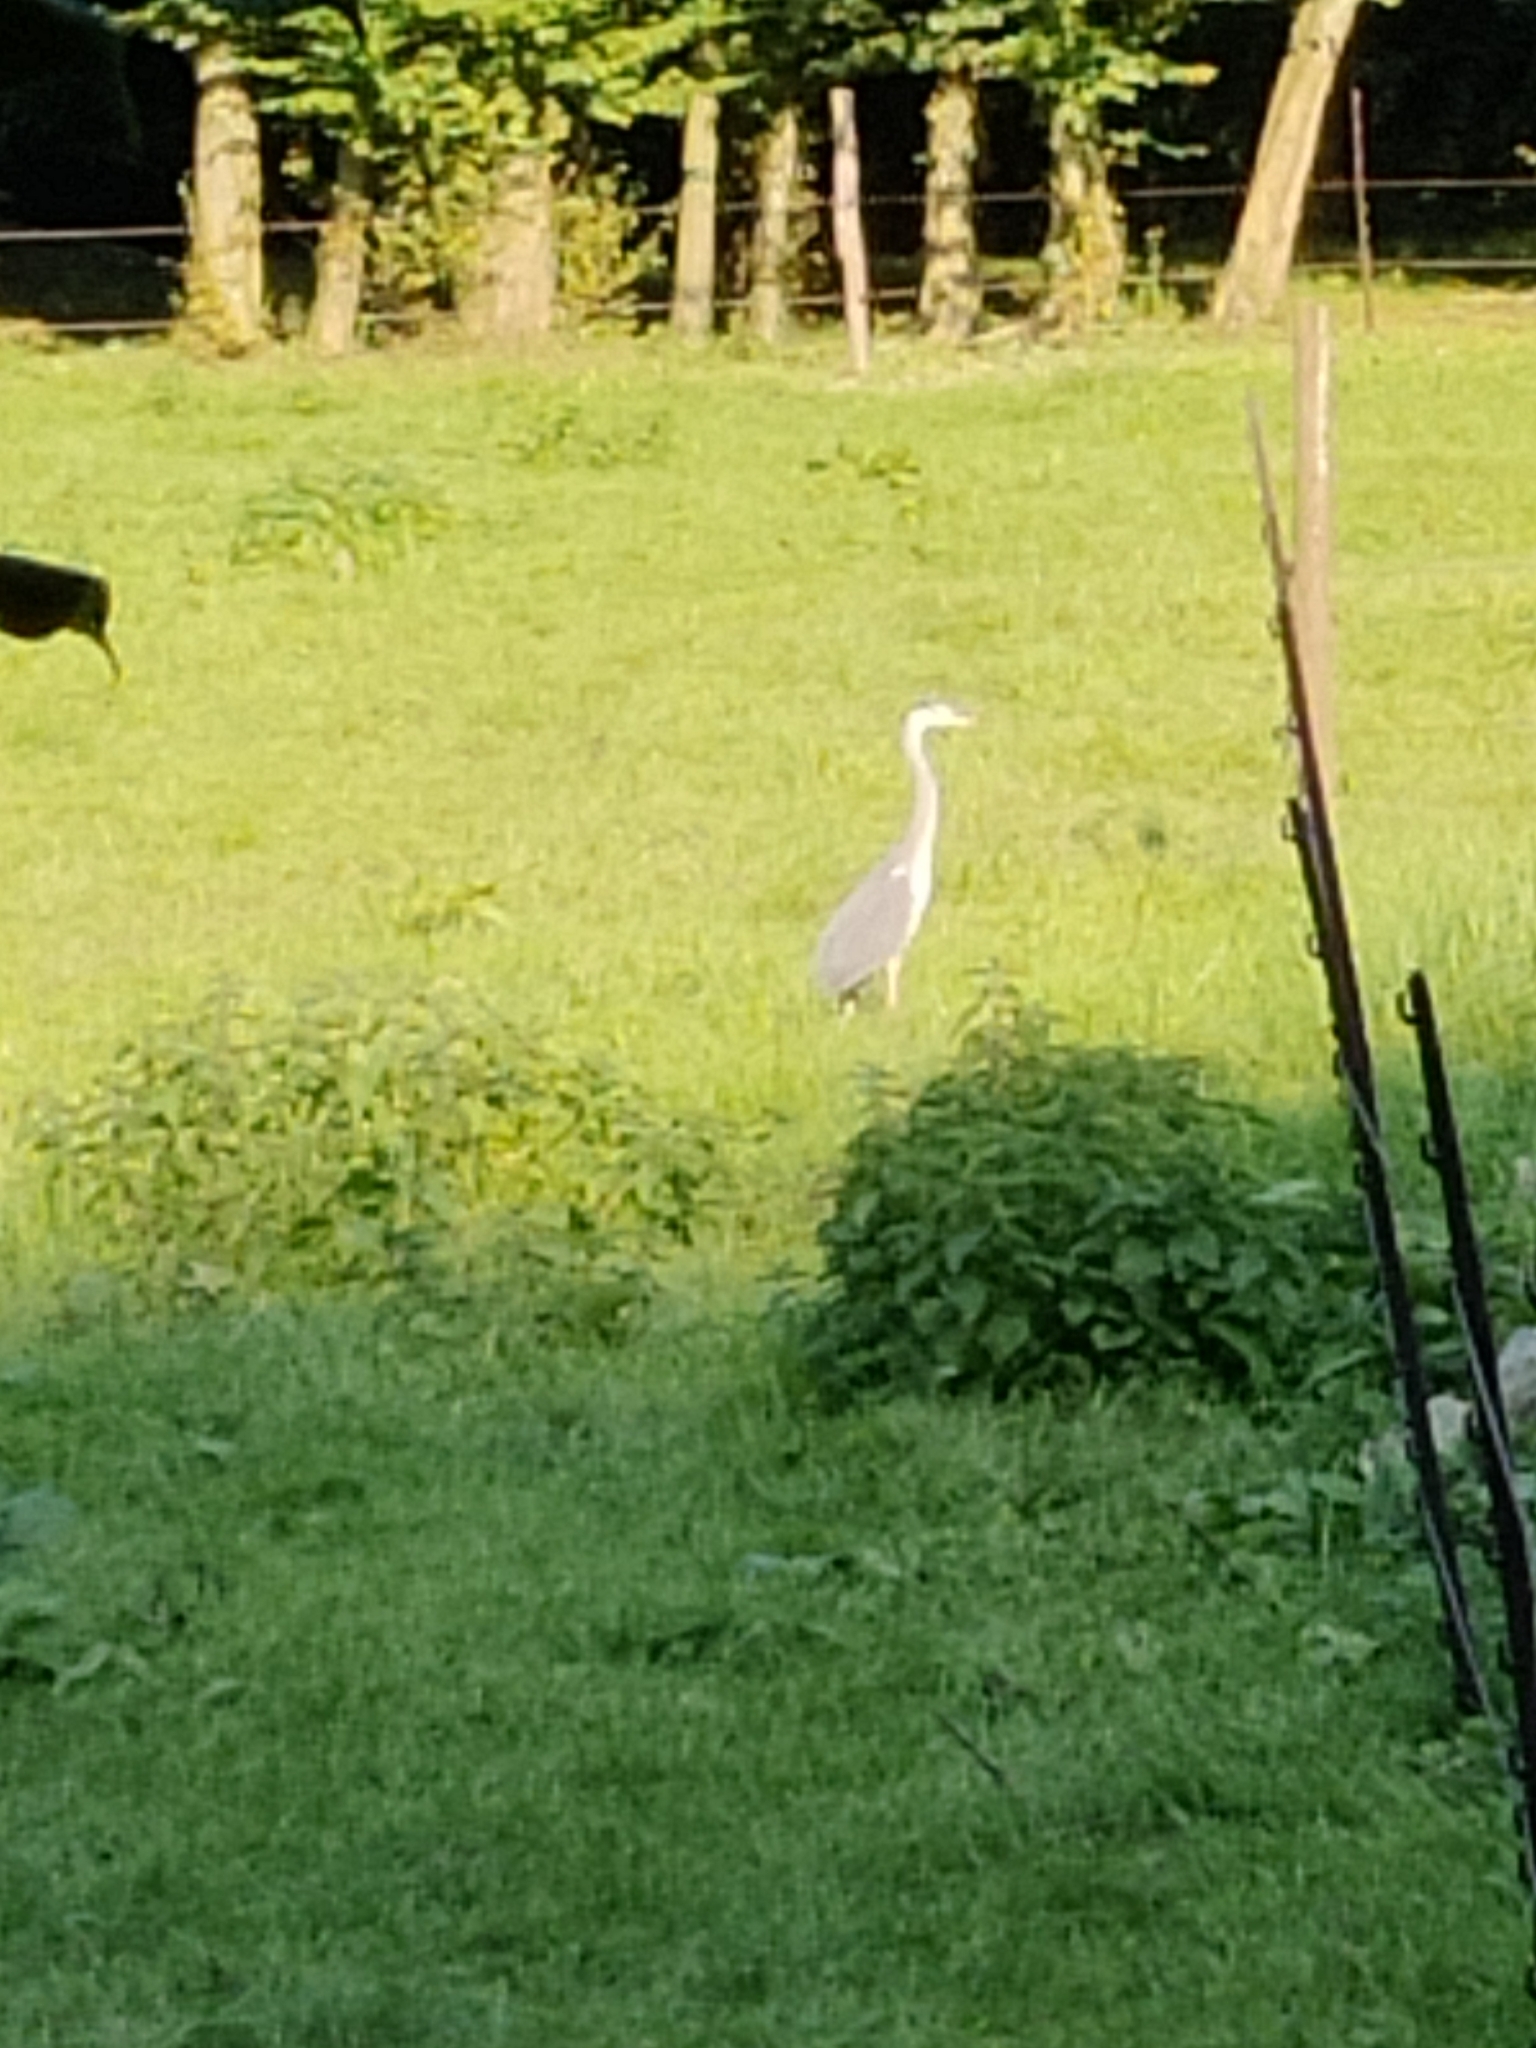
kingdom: Animalia
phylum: Chordata
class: Aves
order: Pelecaniformes
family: Ardeidae
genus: Ardea
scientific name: Ardea cinerea
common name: Grey heron
